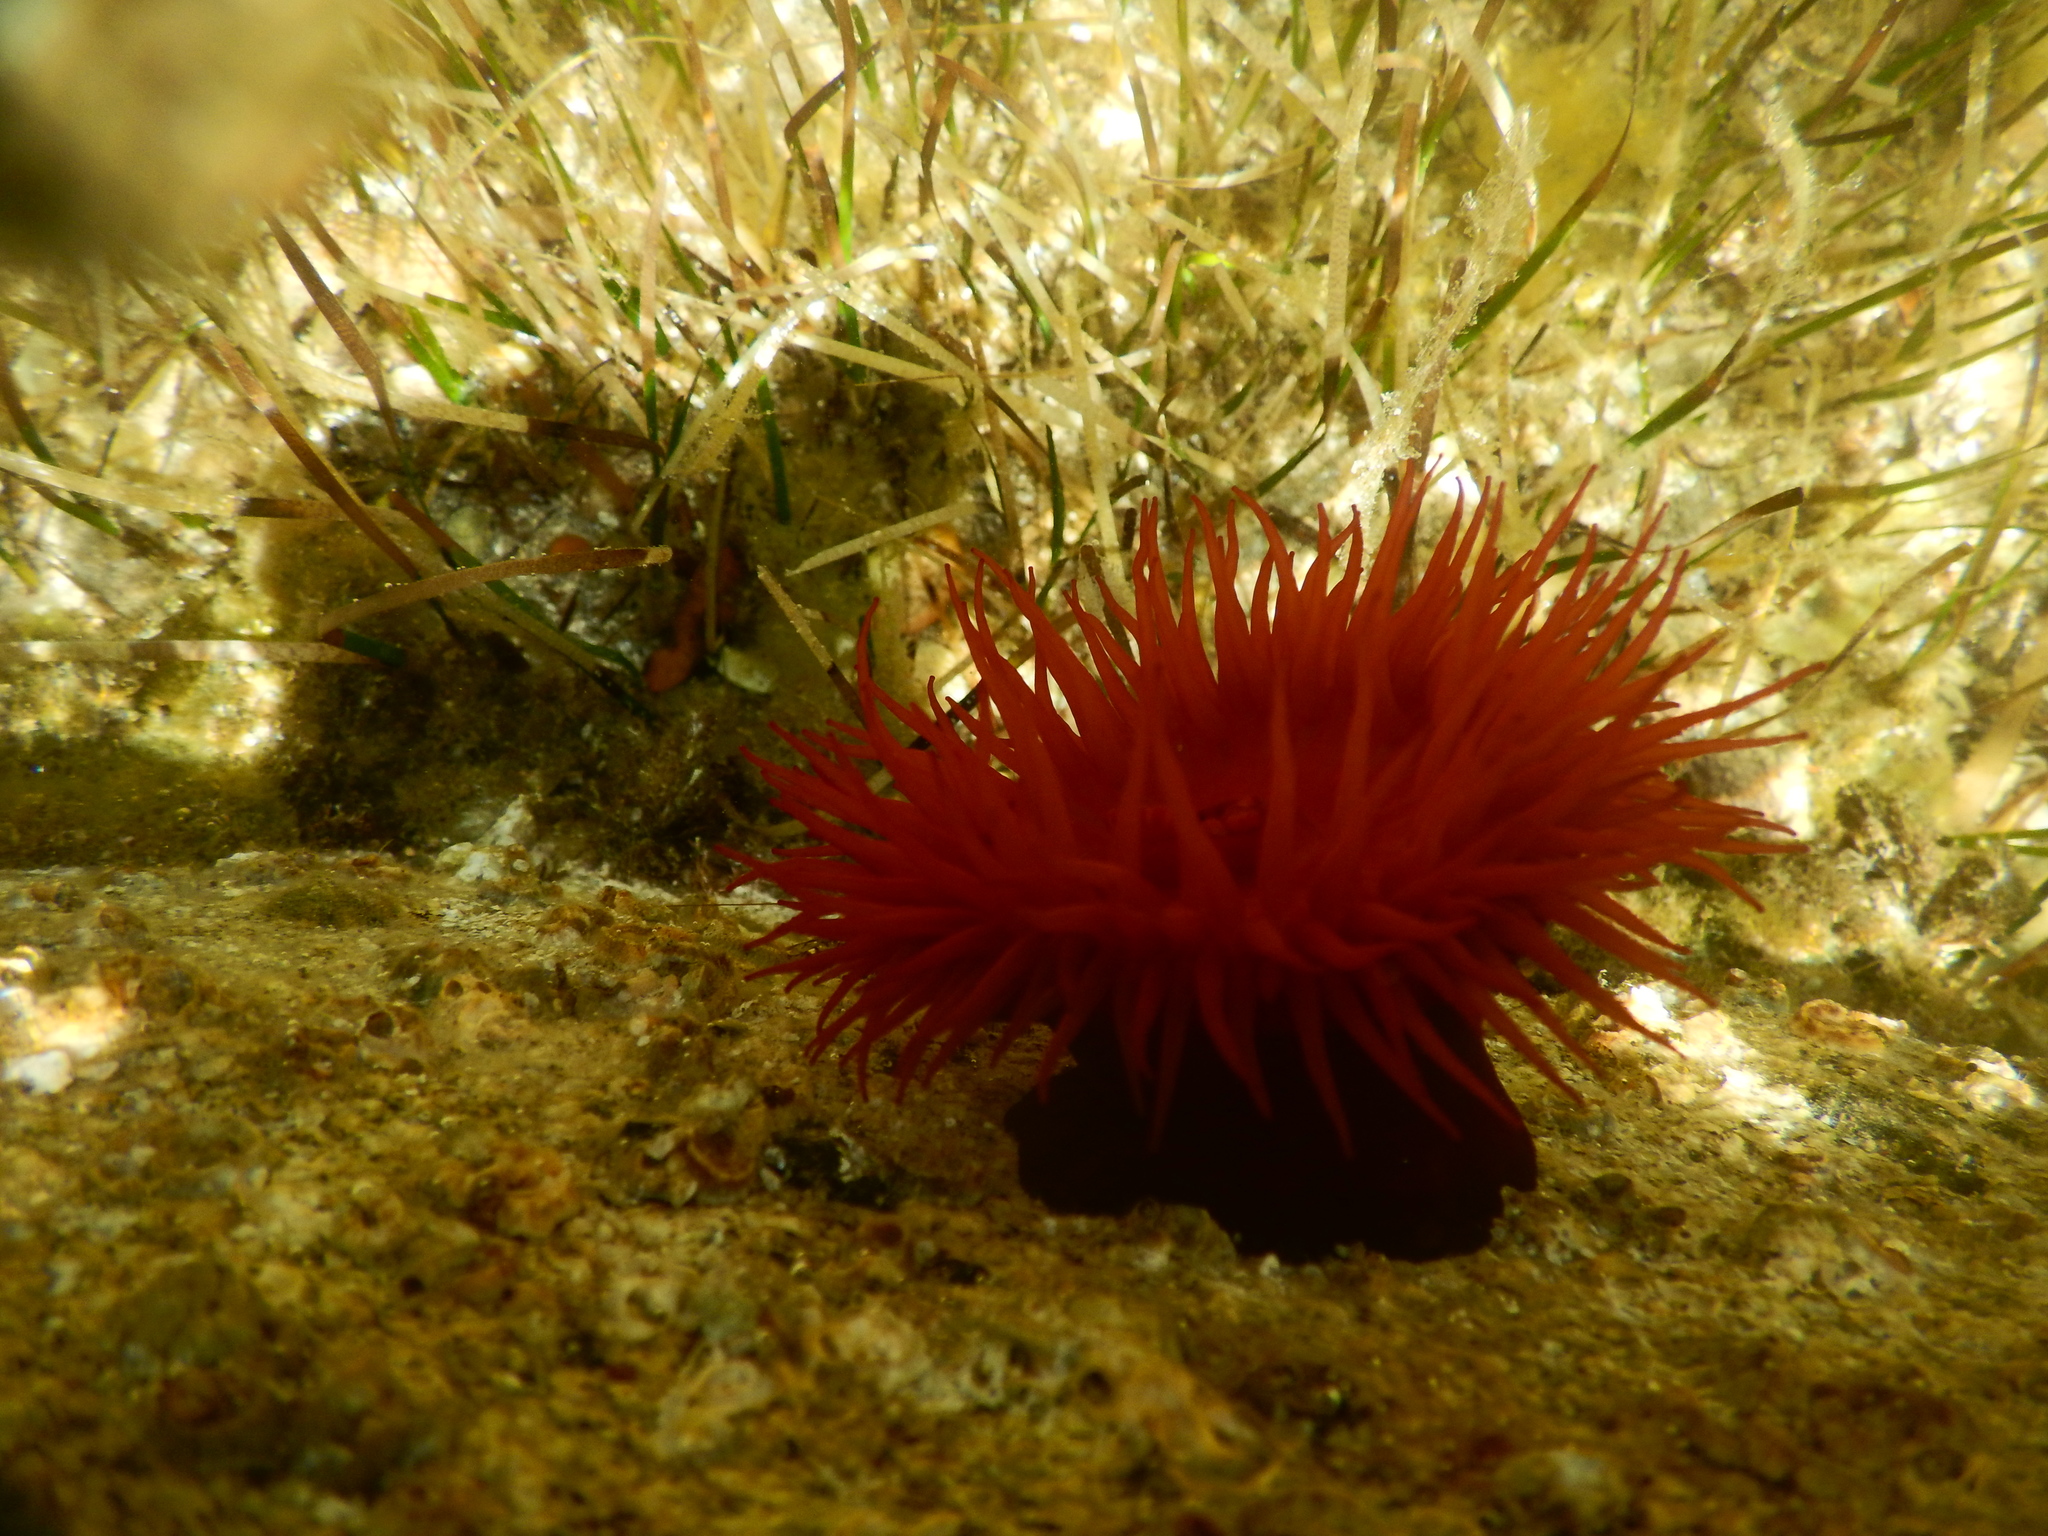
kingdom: Animalia
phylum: Cnidaria
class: Anthozoa
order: Actiniaria
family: Actiniidae
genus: Actinia
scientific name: Actinia mediterranea
